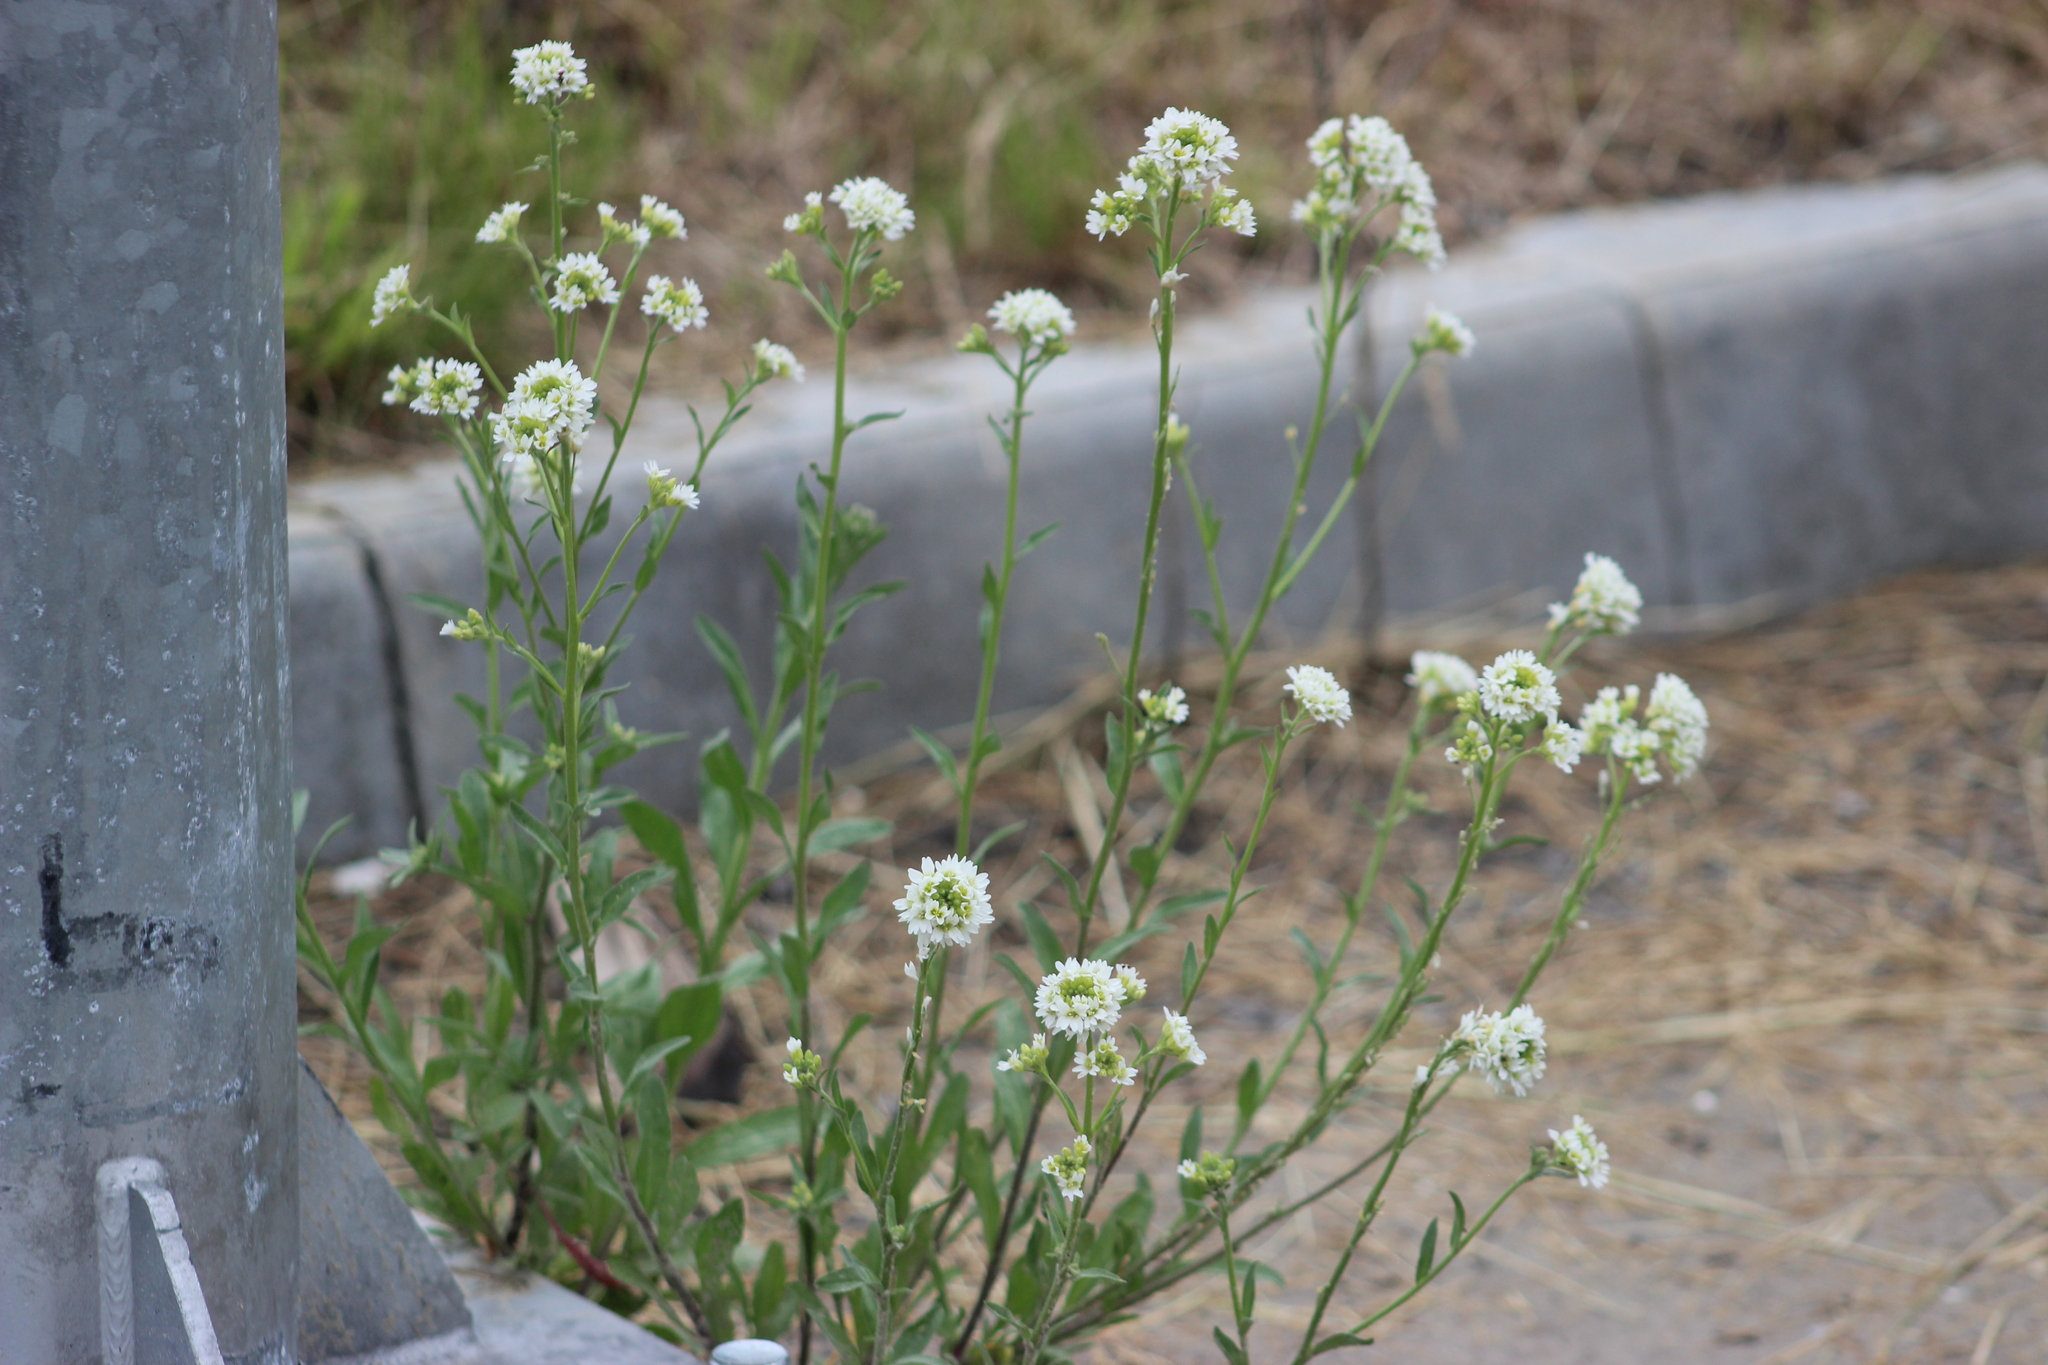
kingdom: Plantae
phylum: Tracheophyta
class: Magnoliopsida
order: Brassicales
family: Brassicaceae
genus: Berteroa
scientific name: Berteroa incana
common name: Hoary alison
